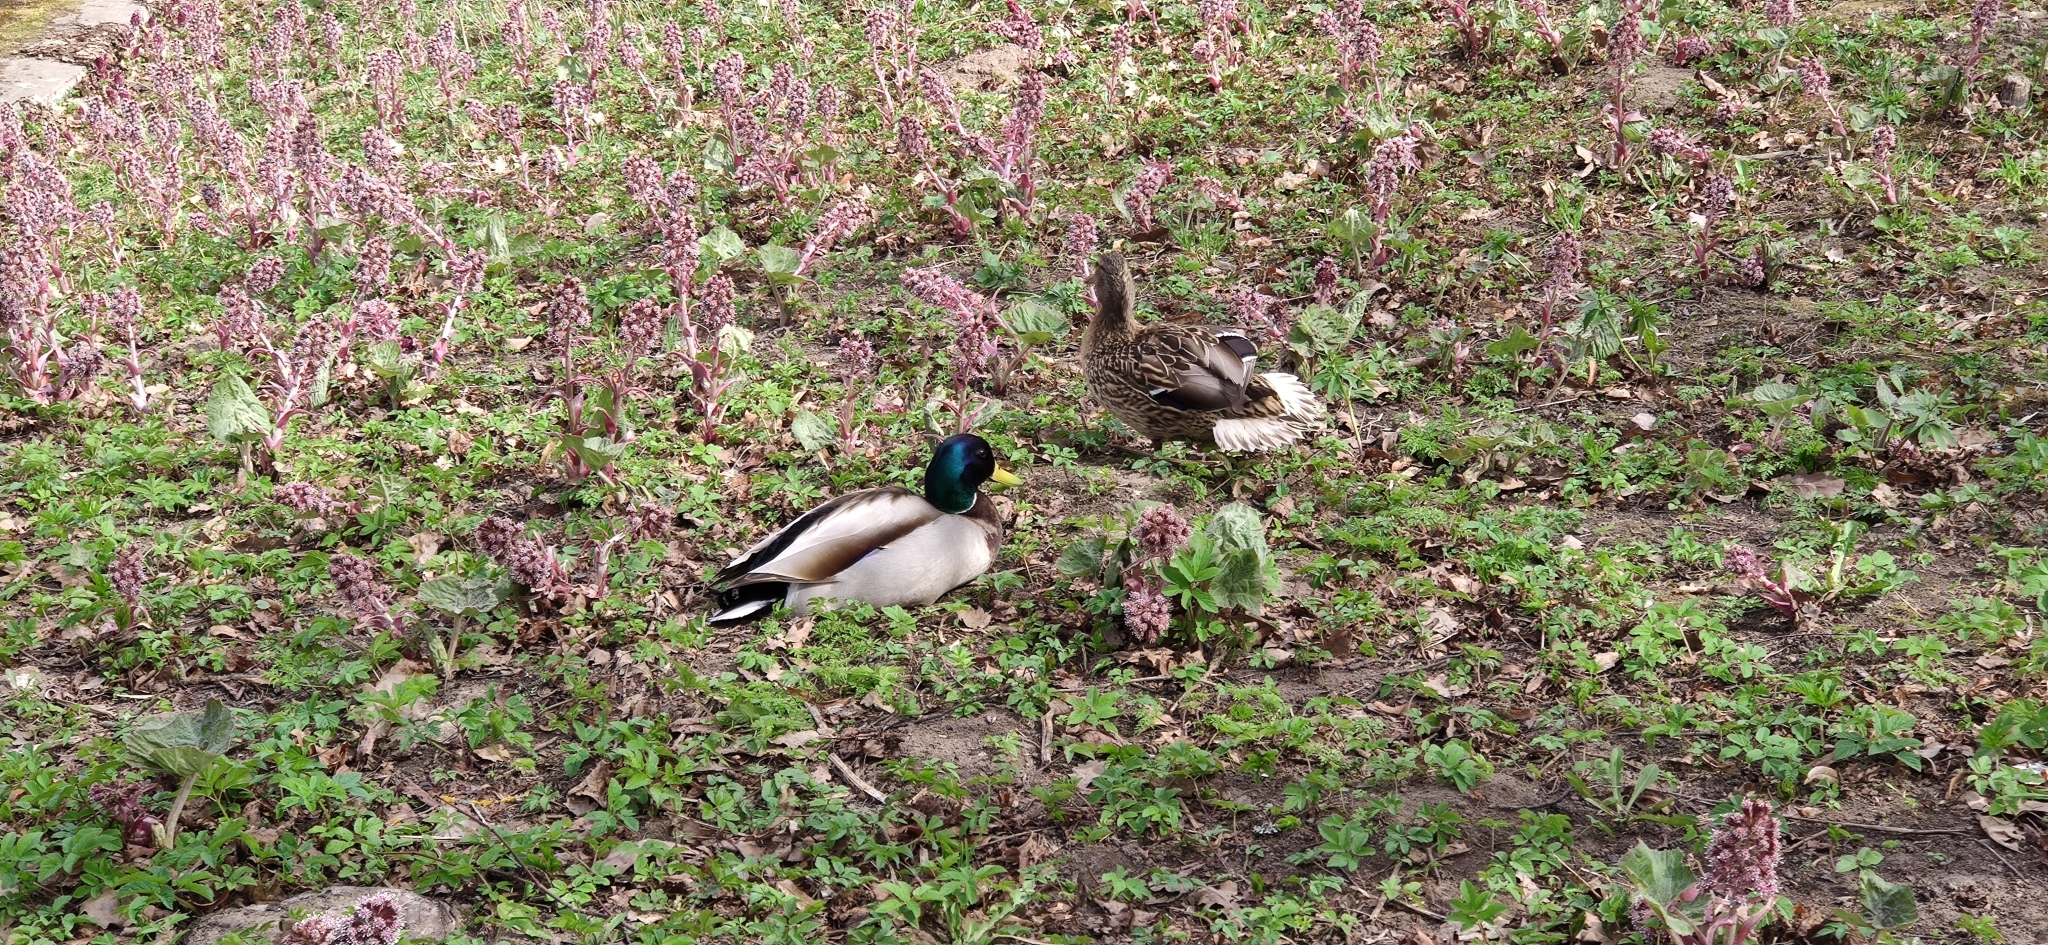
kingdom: Animalia
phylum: Chordata
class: Aves
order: Anseriformes
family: Anatidae
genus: Anas
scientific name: Anas platyrhynchos
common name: Mallard
